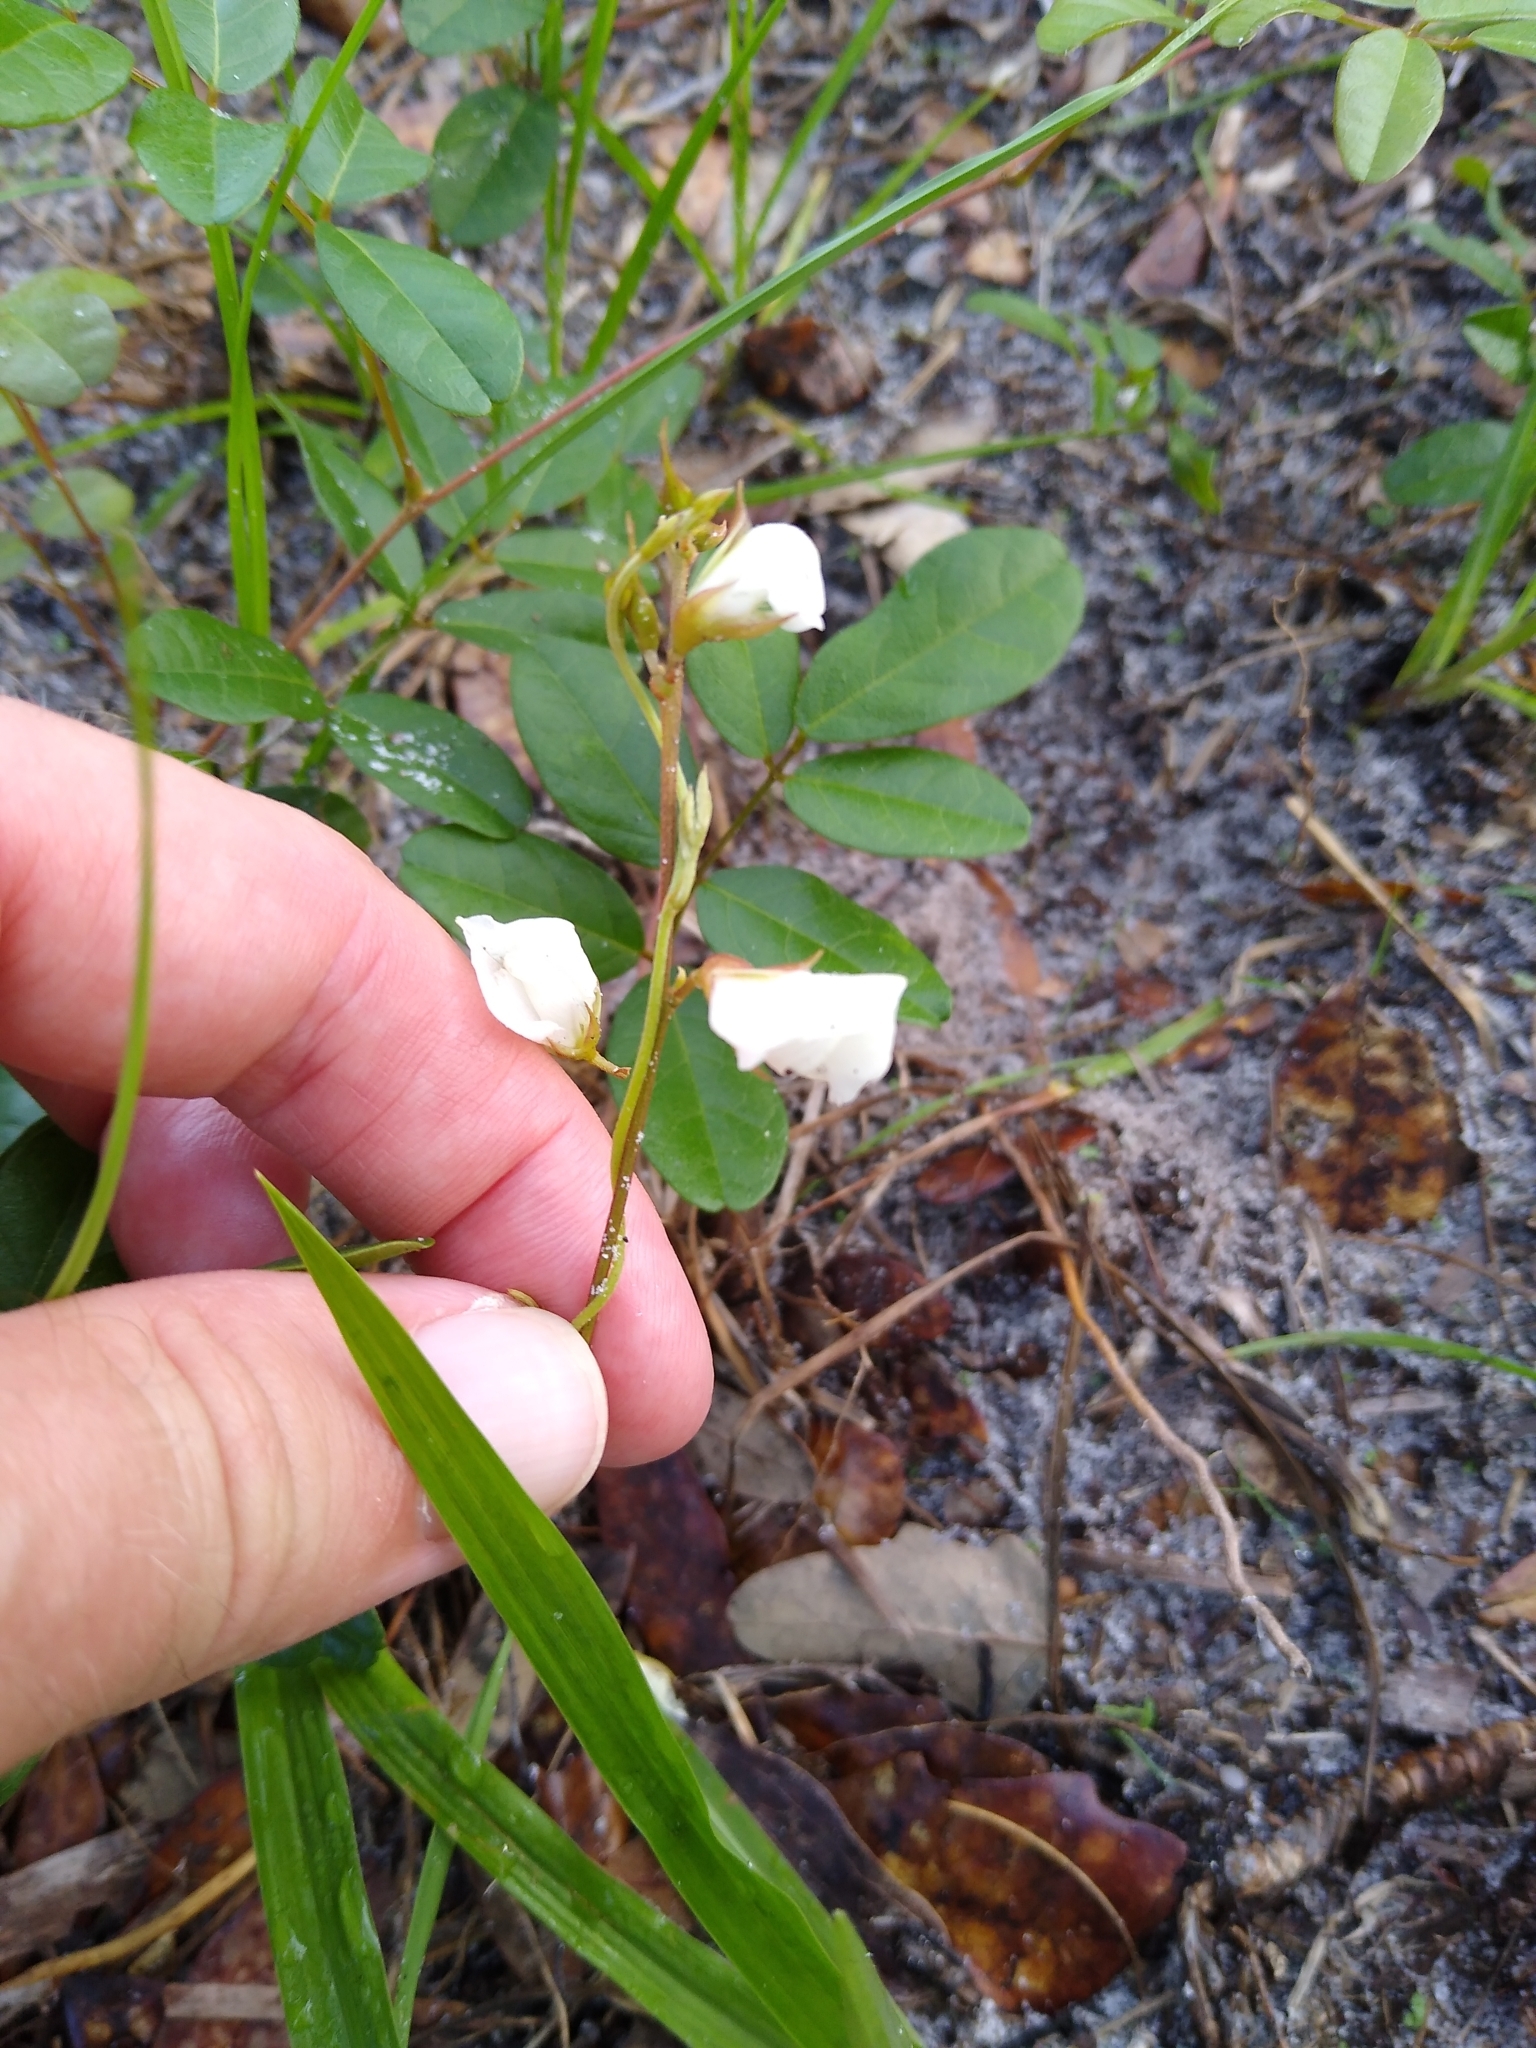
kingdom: Plantae
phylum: Tracheophyta
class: Magnoliopsida
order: Fabales
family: Fabaceae
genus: Galactia
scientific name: Galactia elliottii
